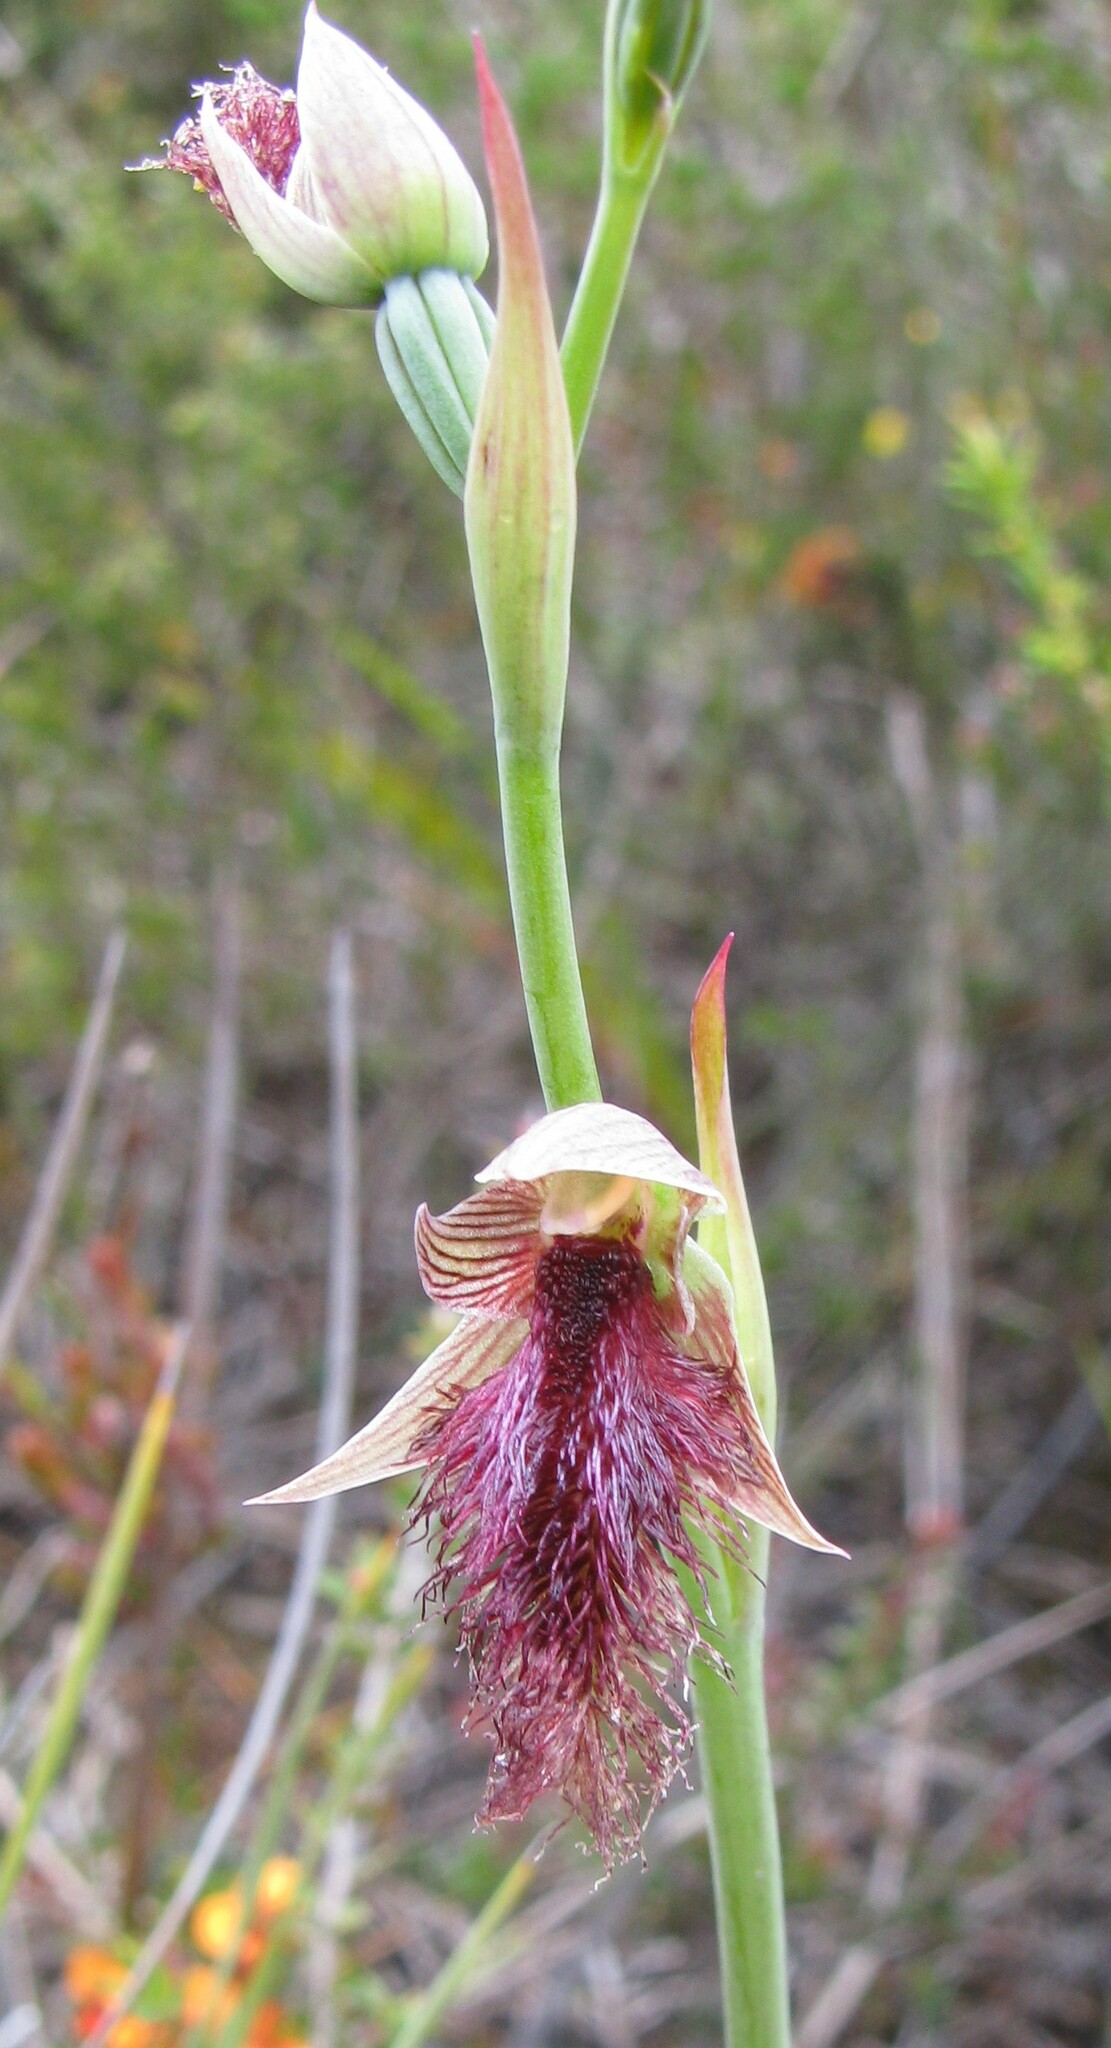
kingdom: Plantae
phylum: Tracheophyta
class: Liliopsida
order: Asparagales
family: Orchidaceae
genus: Calochilus
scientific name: Calochilus robertsonii
